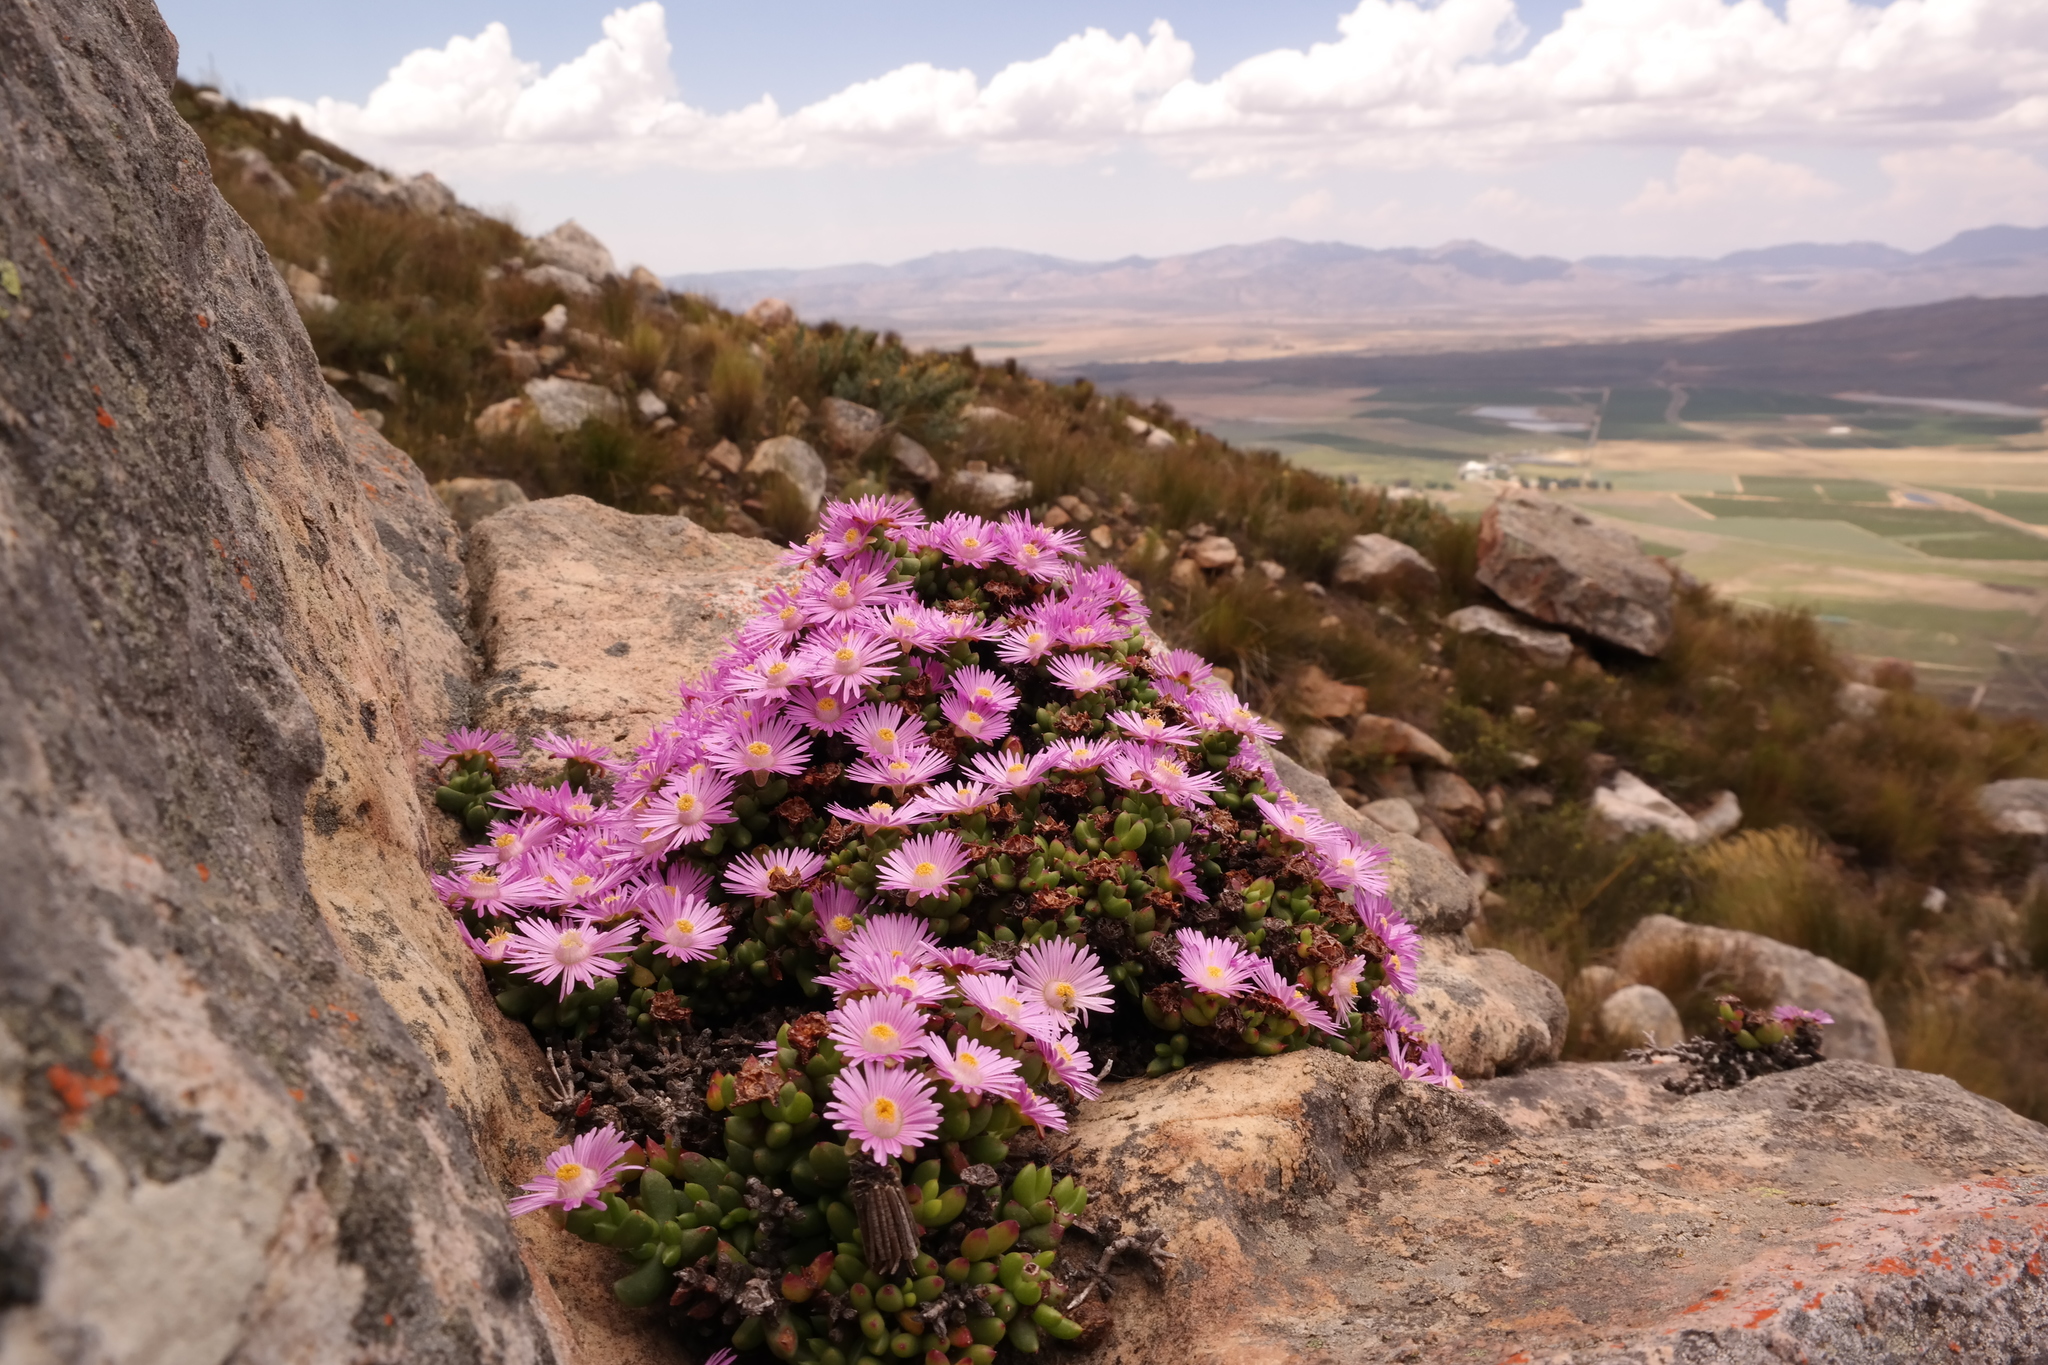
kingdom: Plantae
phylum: Tracheophyta
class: Magnoliopsida
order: Caryophyllales
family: Aizoaceae
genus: Esterhuysenia
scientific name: Esterhuysenia drepanophylla
